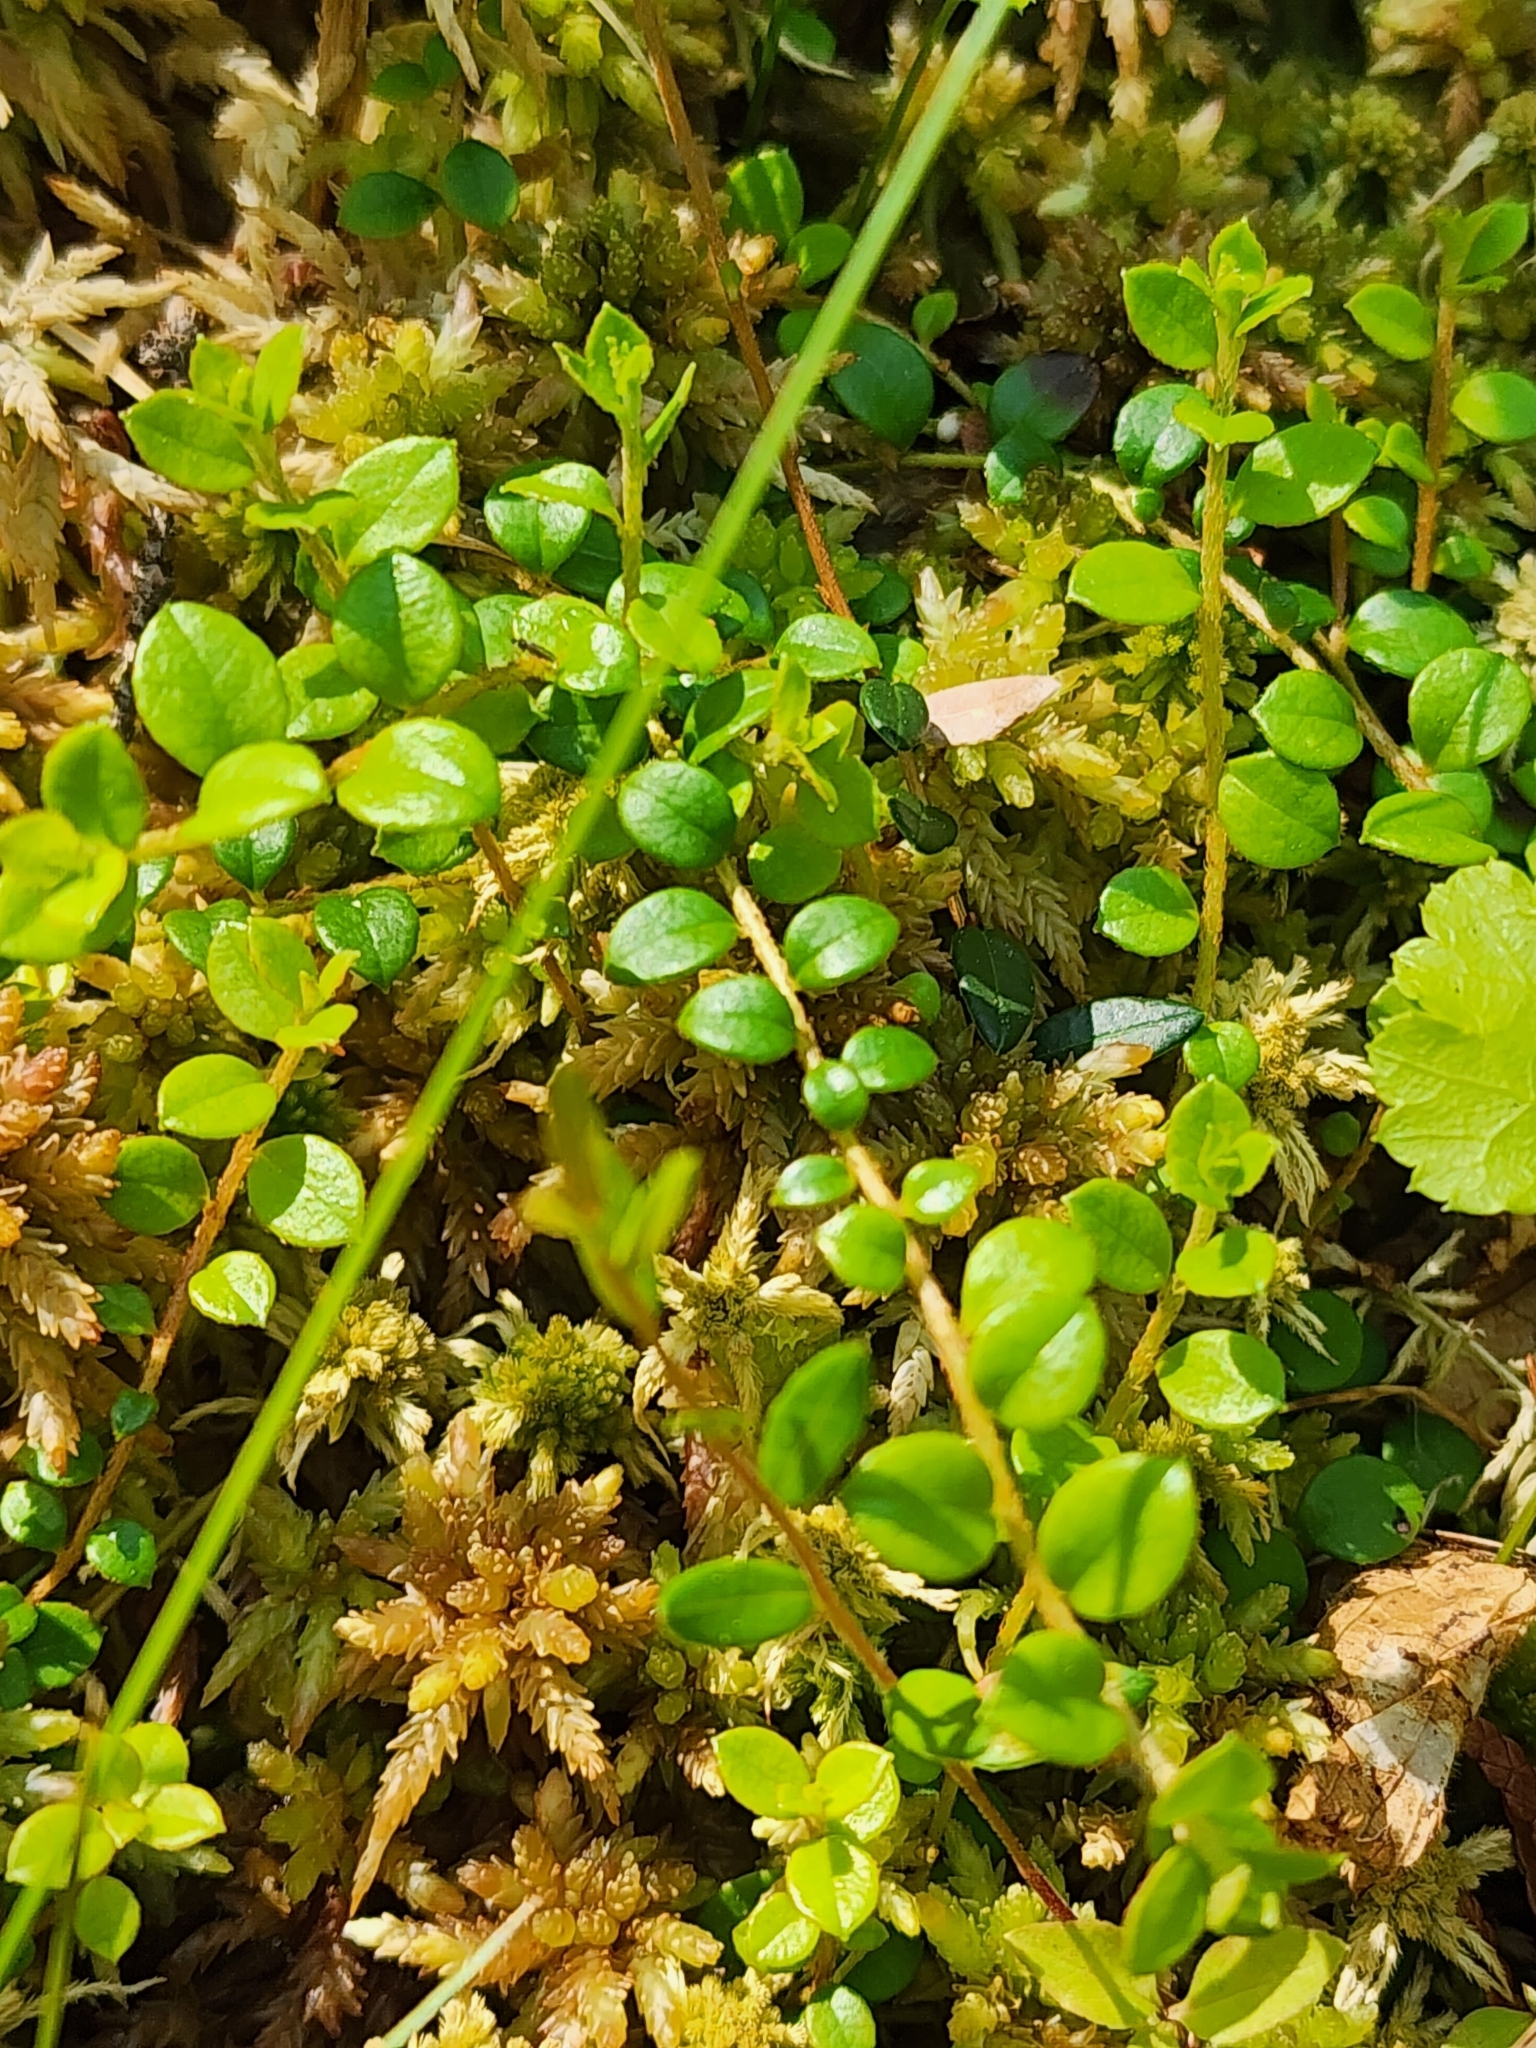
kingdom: Plantae
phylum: Tracheophyta
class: Magnoliopsida
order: Ericales
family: Ericaceae
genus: Gaultheria
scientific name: Gaultheria hispidula
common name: Cancer wintergreen
